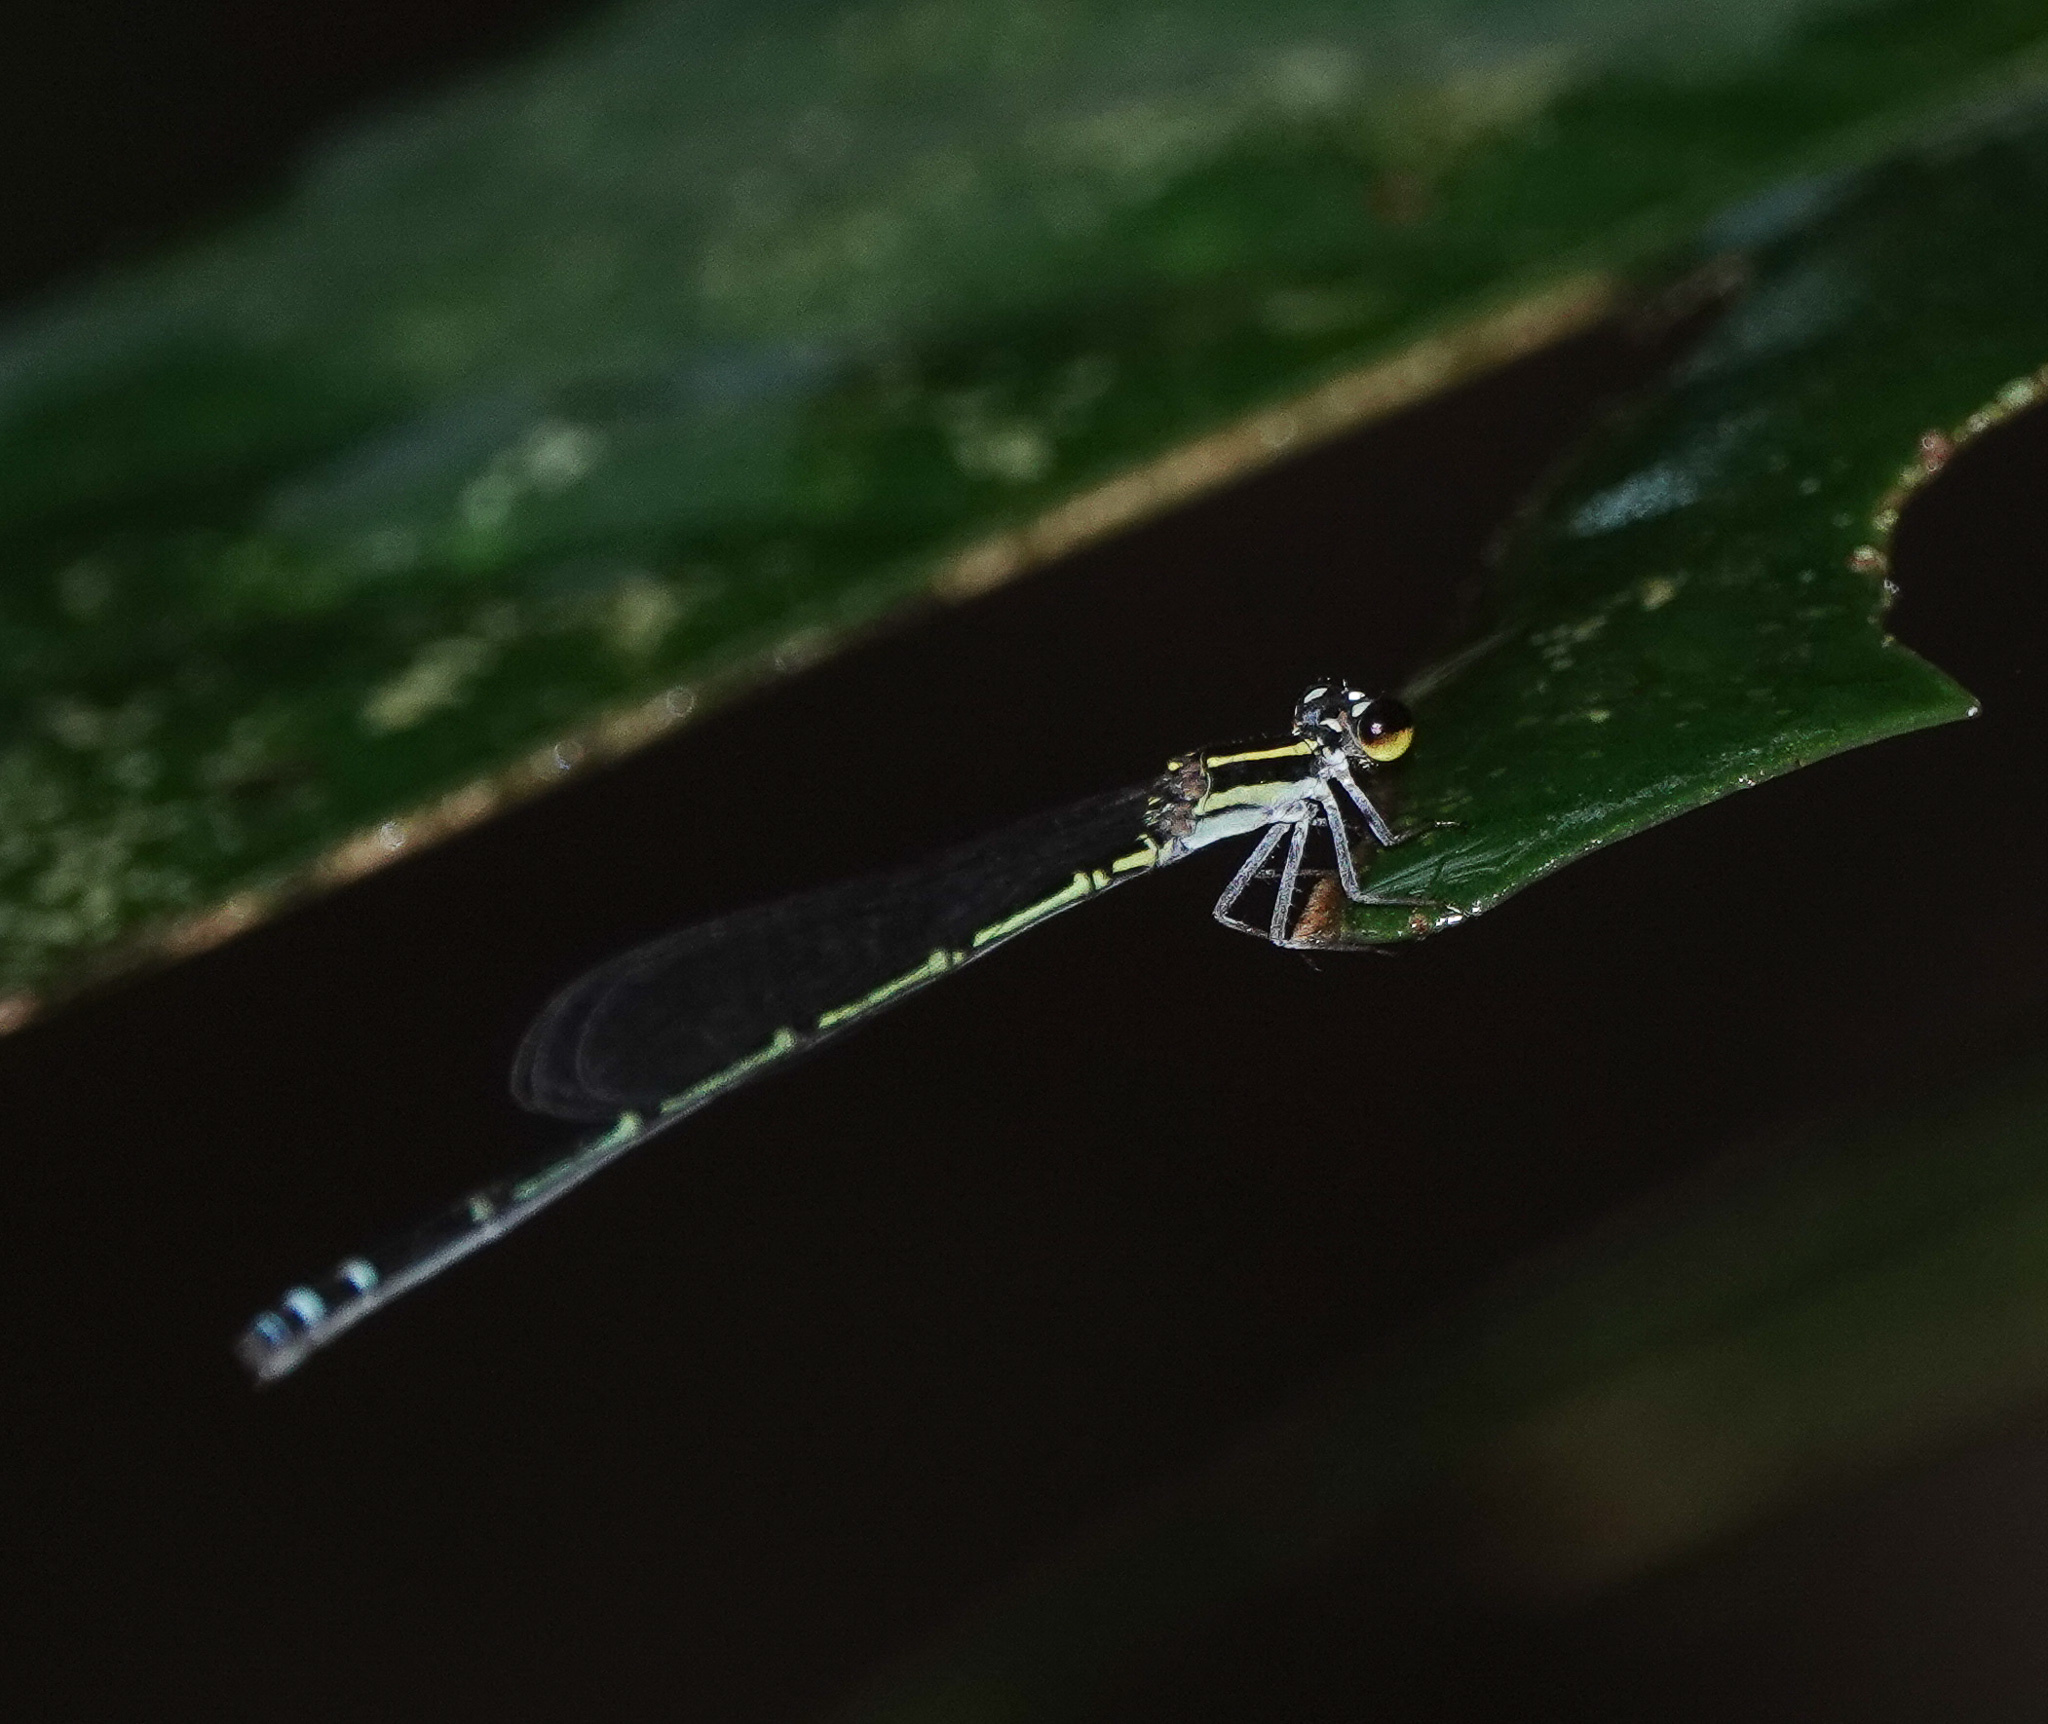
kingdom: Animalia
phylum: Arthropoda
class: Insecta
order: Odonata
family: Coenagrionidae
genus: Mortonagrion
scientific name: Mortonagrion aborense
